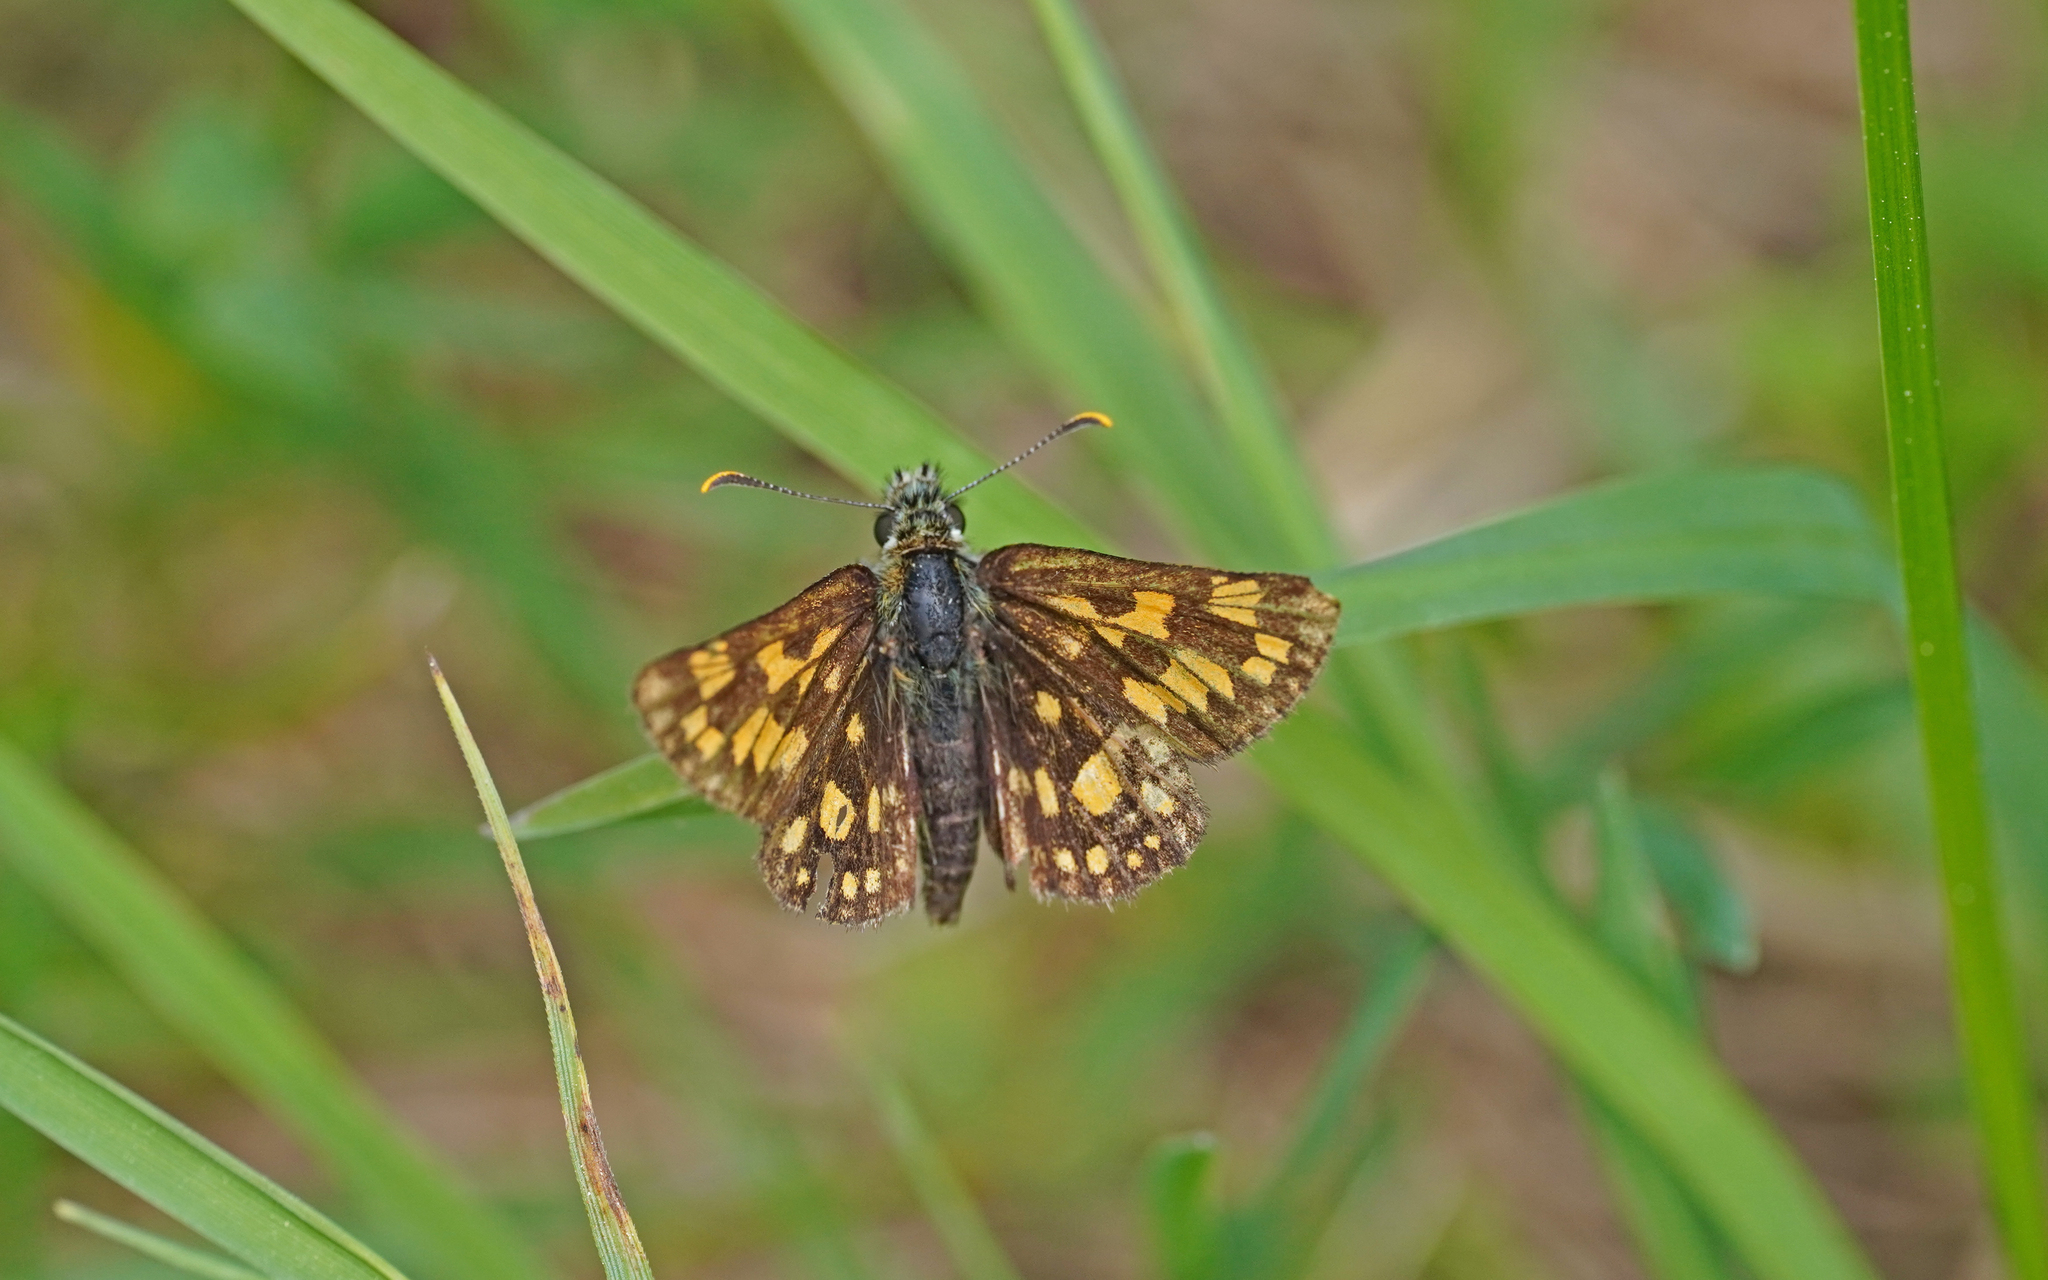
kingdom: Animalia
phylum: Arthropoda
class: Insecta
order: Lepidoptera
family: Hesperiidae
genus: Carterocephalus
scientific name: Carterocephalus palaemon
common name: Chequered skipper
